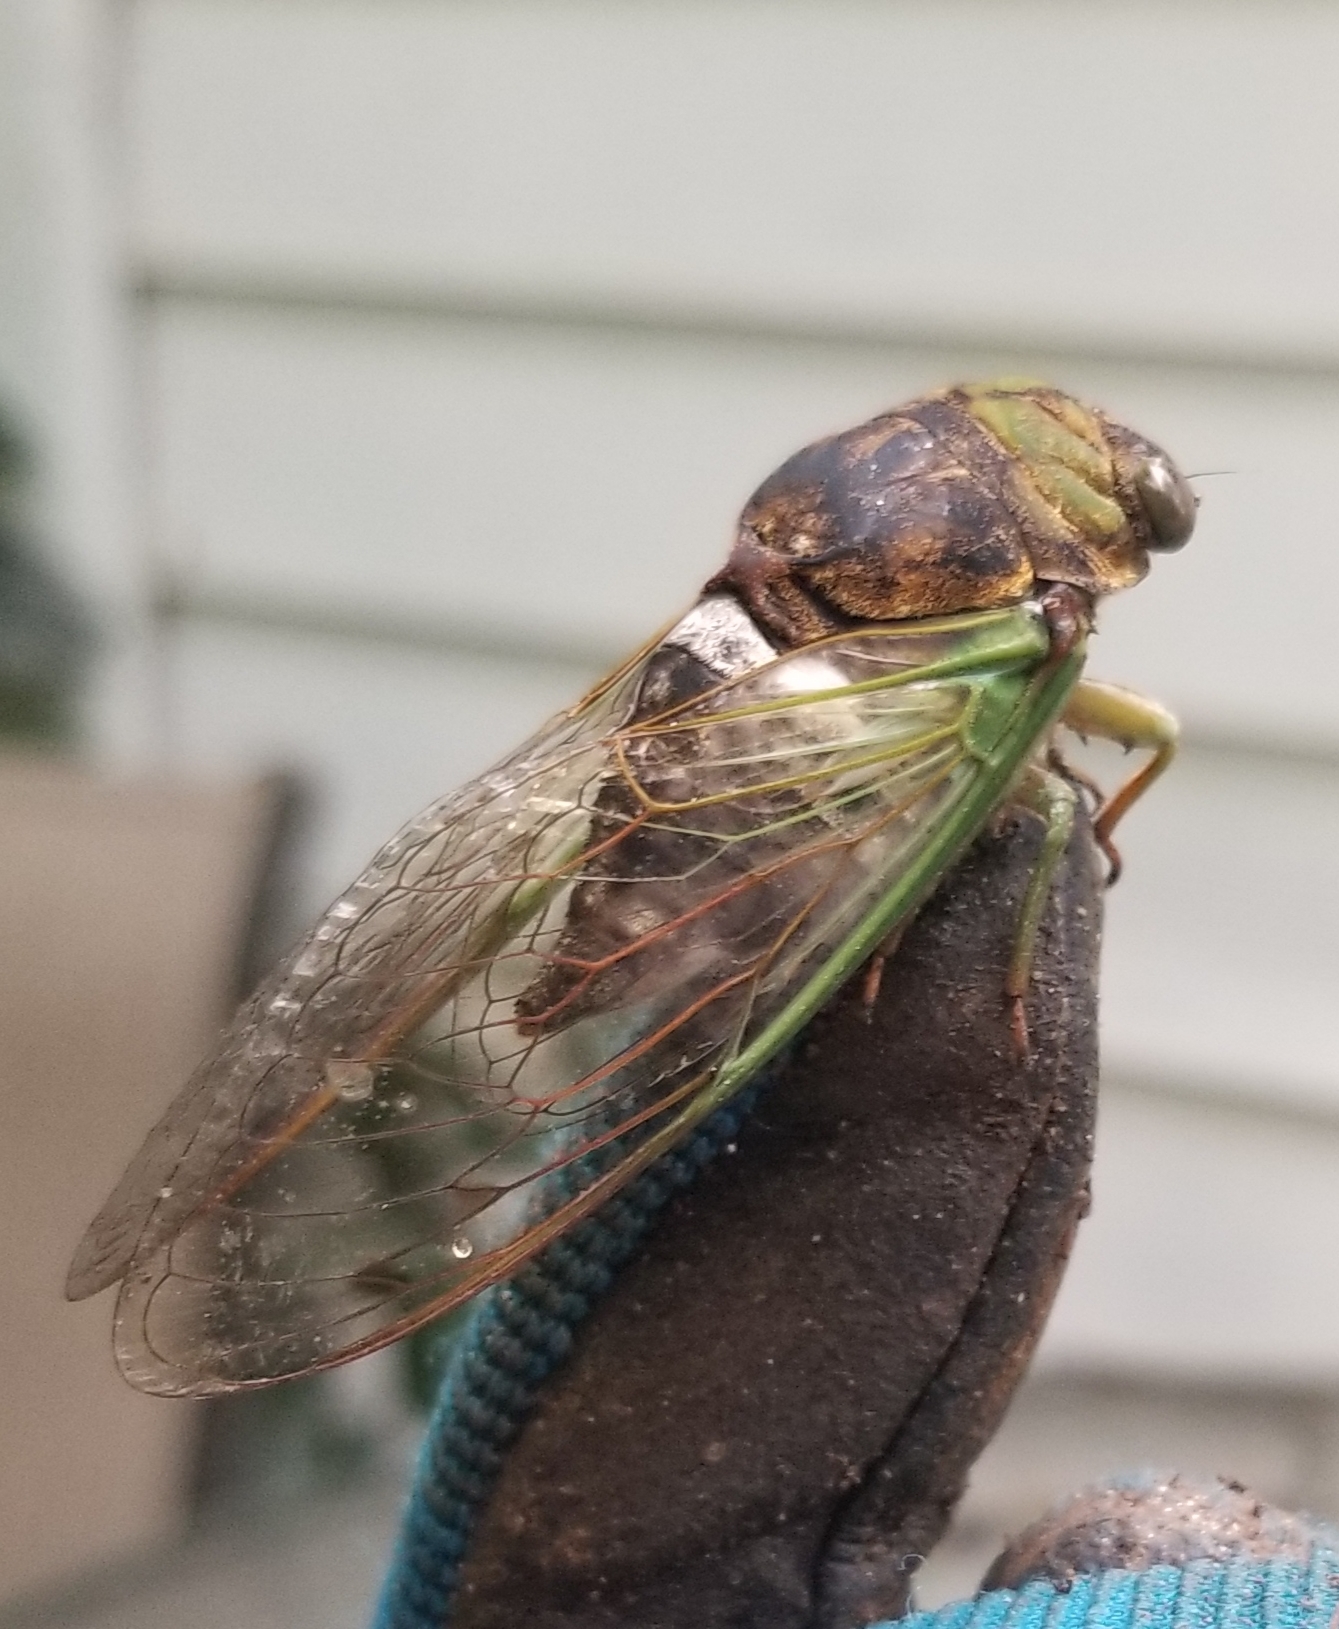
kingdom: Animalia
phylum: Arthropoda
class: Insecta
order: Hemiptera
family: Cicadidae
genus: Neotibicen
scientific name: Neotibicen tibicen
